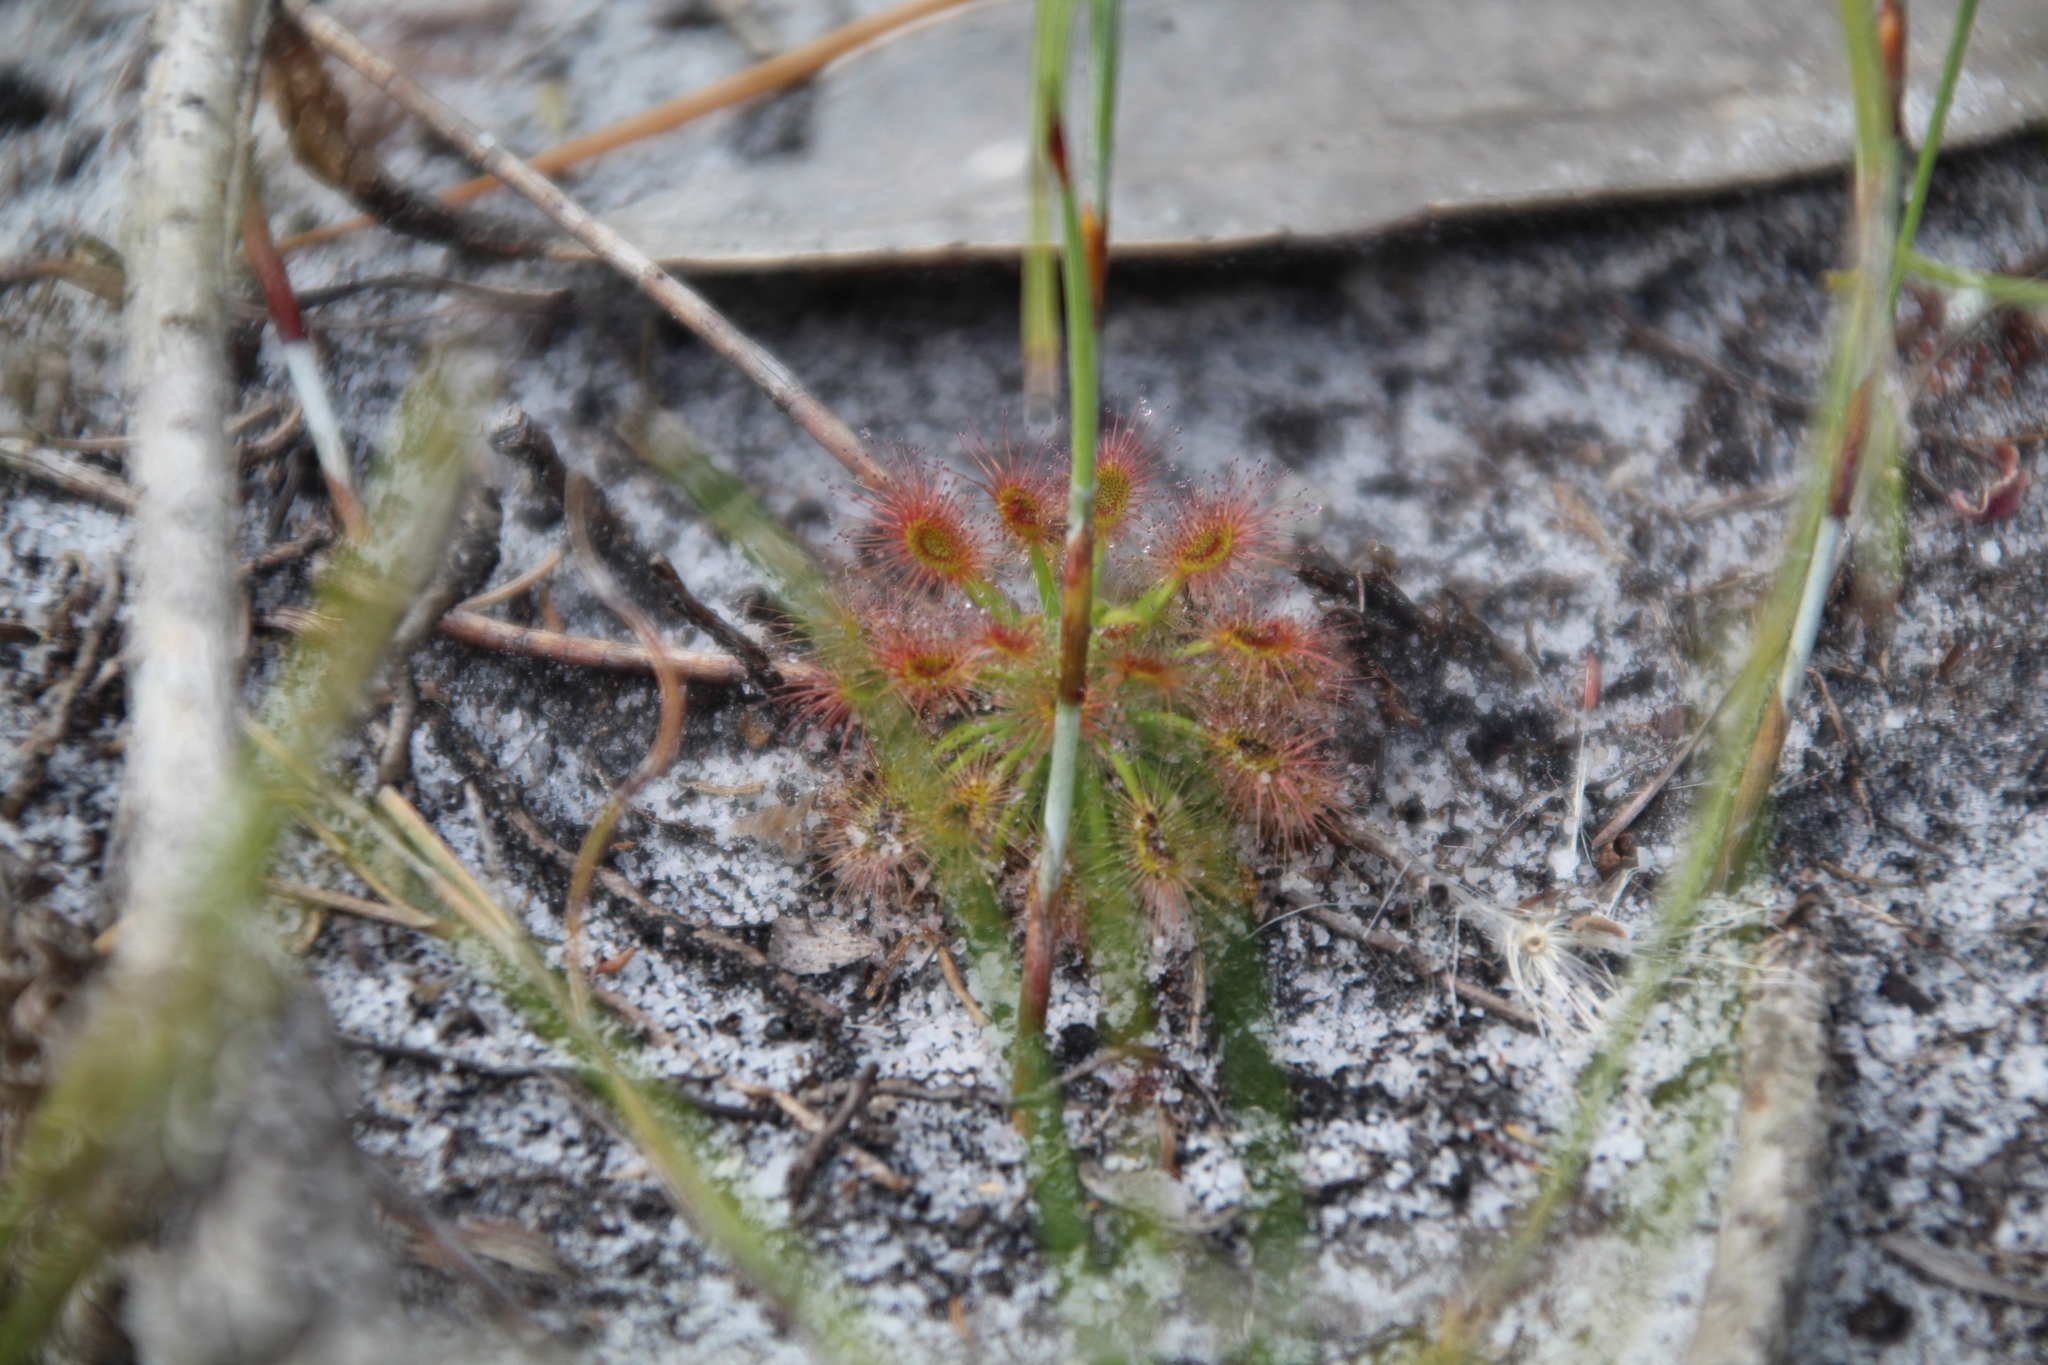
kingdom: Plantae
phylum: Tracheophyta
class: Magnoliopsida
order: Caryophyllales
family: Droseraceae
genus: Drosera
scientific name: Drosera paleacea
